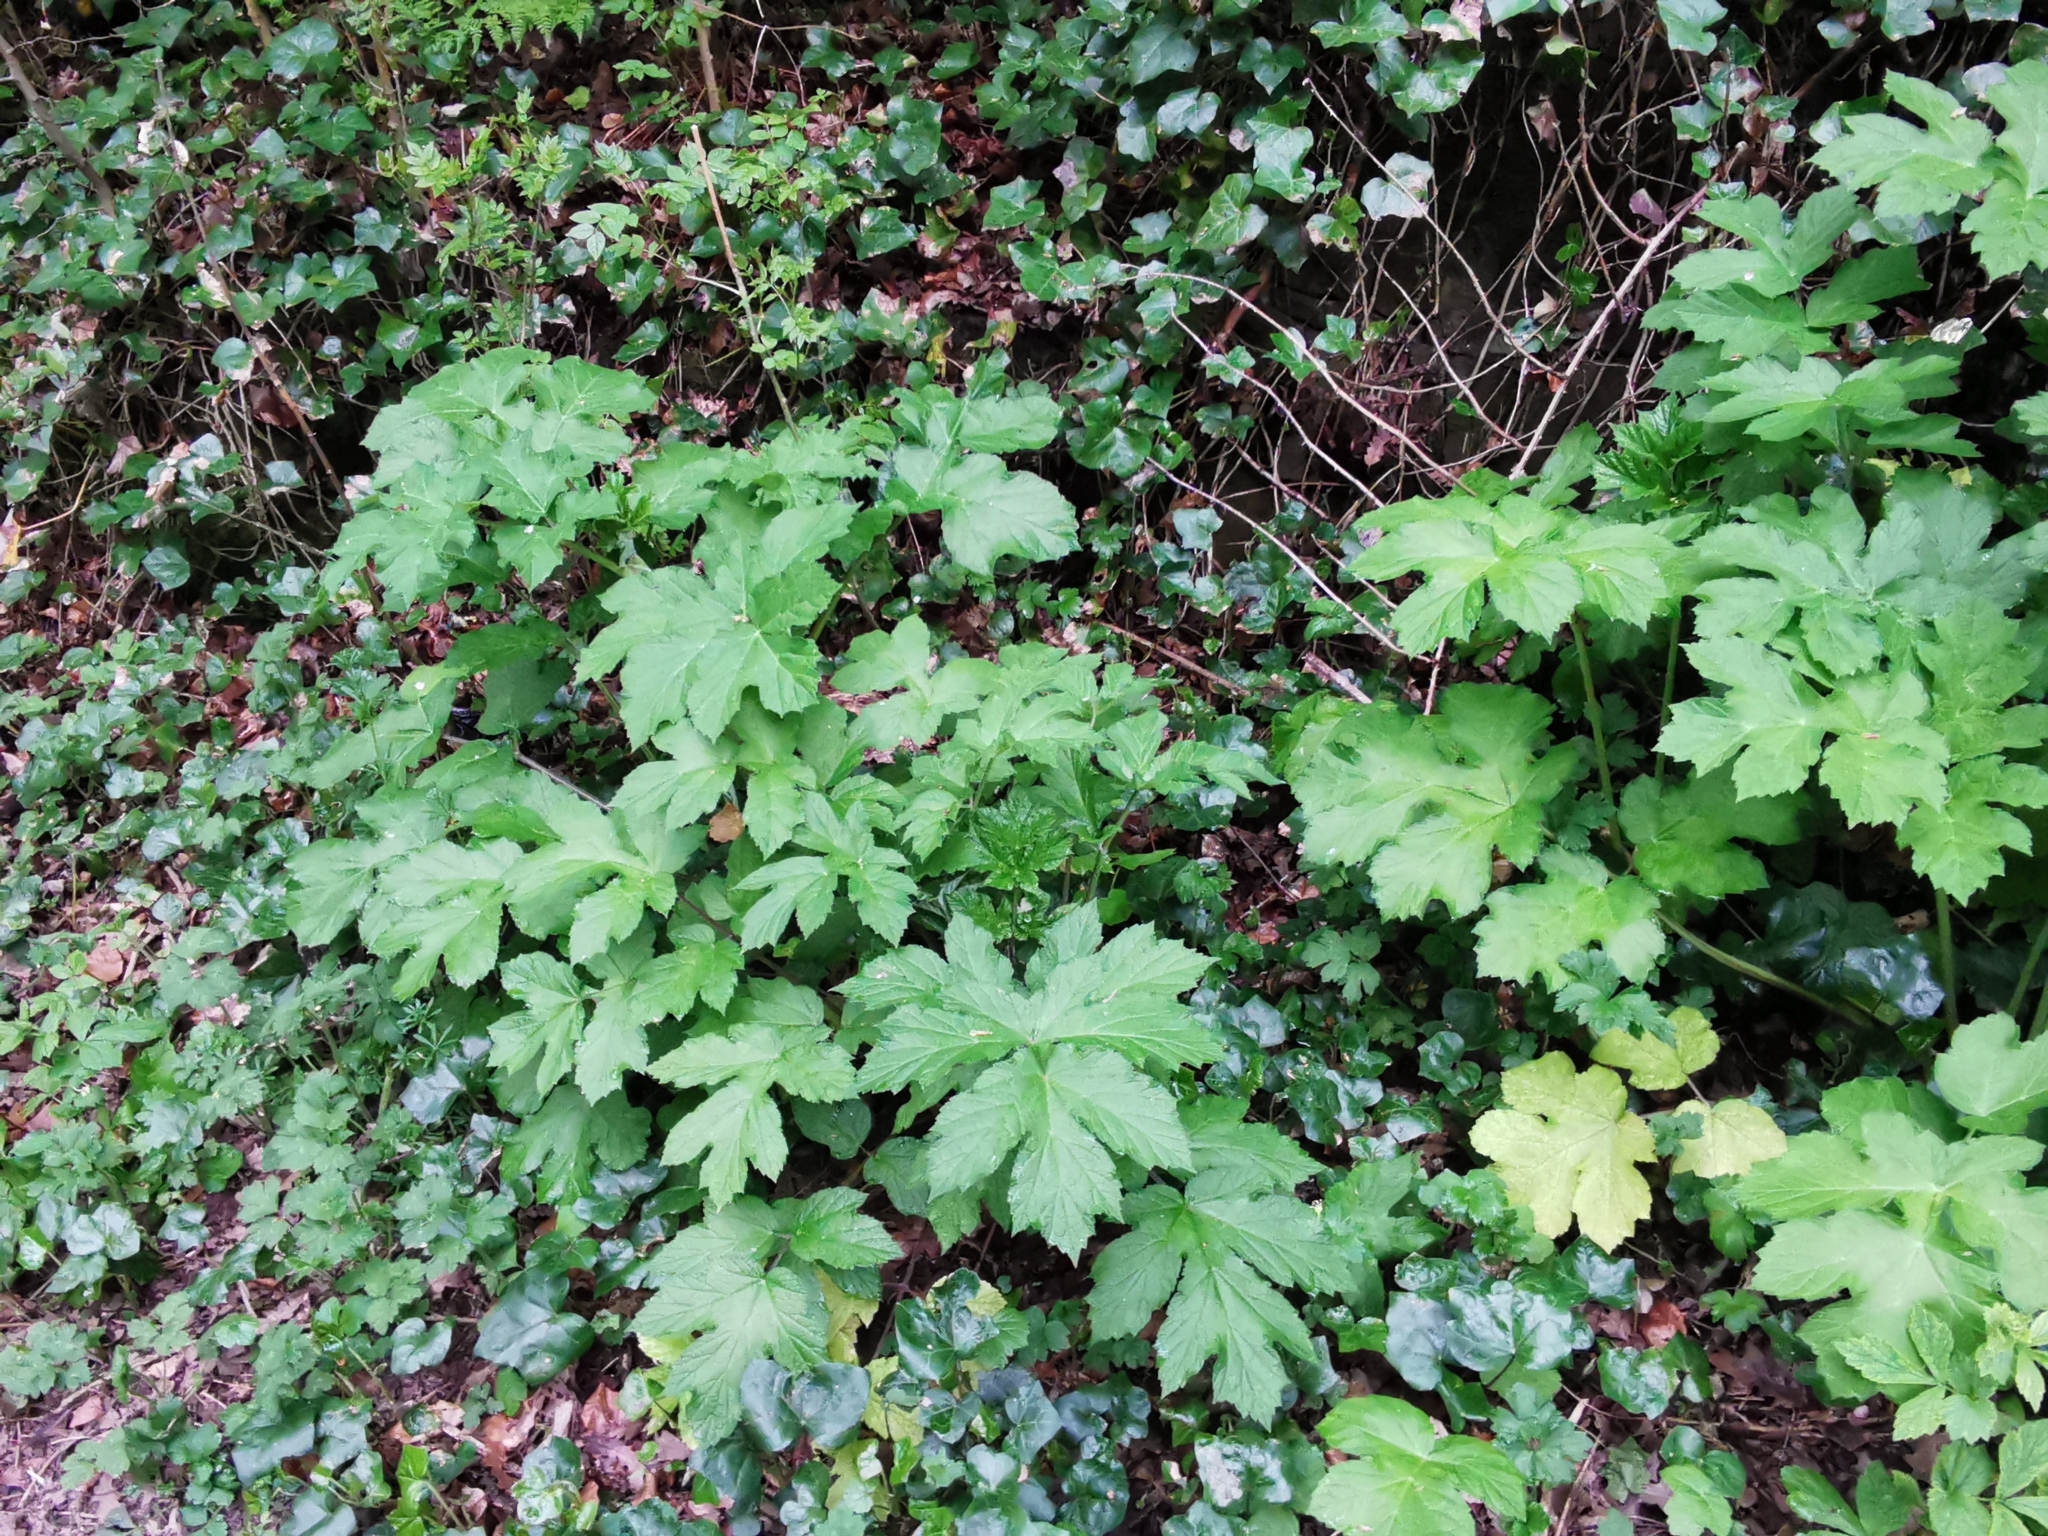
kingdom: Plantae
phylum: Tracheophyta
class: Magnoliopsida
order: Apiales
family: Apiaceae
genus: Heracleum
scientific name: Heracleum sphondylium
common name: Hogweed
